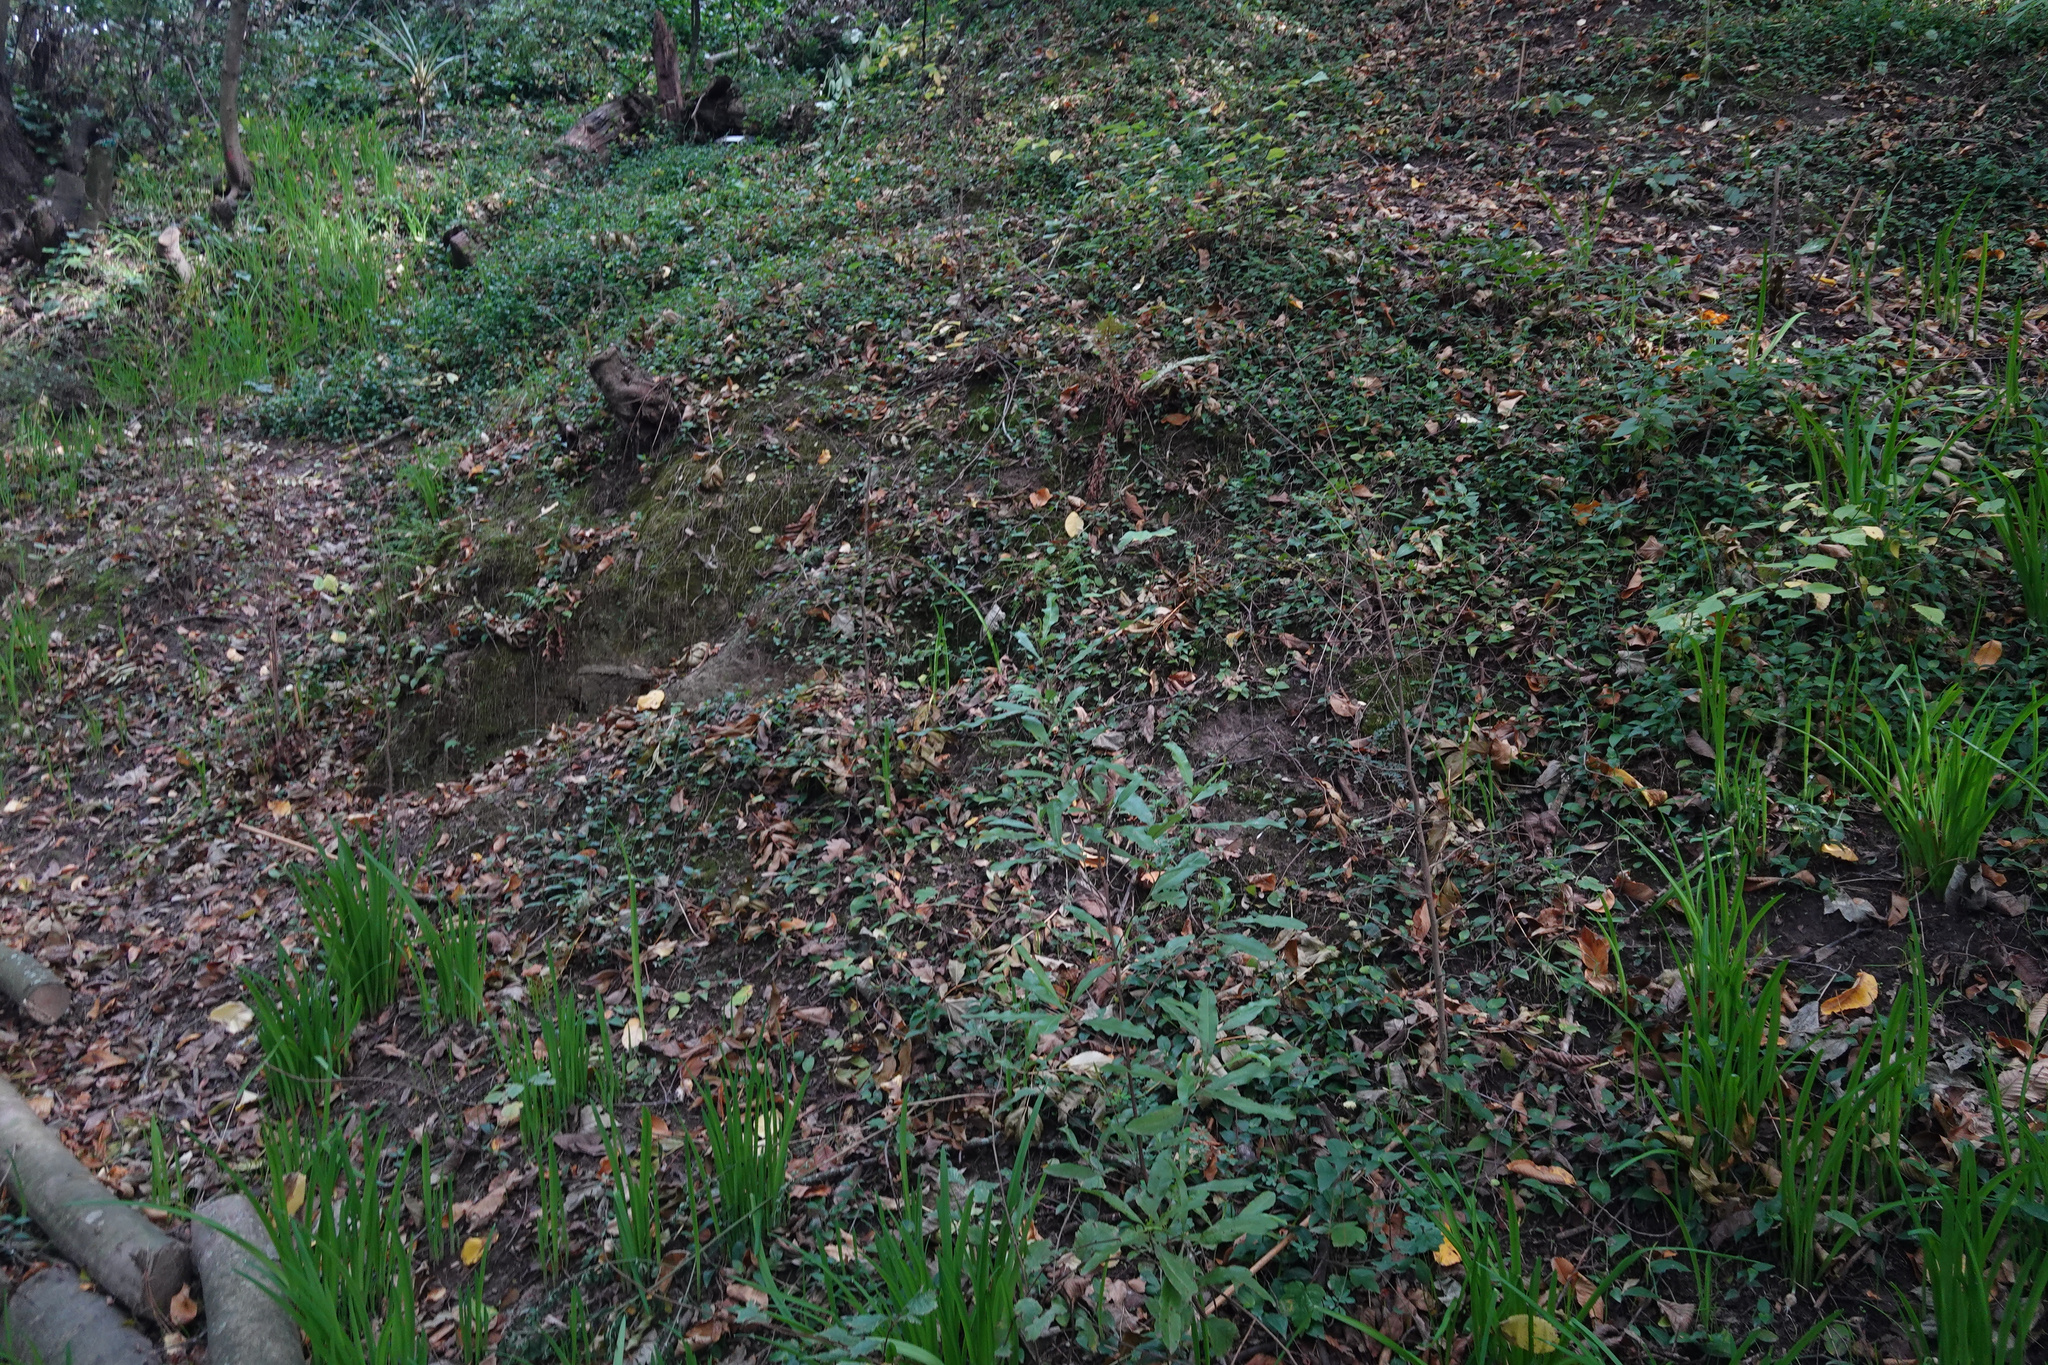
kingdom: Plantae
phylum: Tracheophyta
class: Magnoliopsida
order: Apiales
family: Pittosporaceae
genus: Pittosporum
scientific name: Pittosporum eugenioides
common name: Lemonwood
